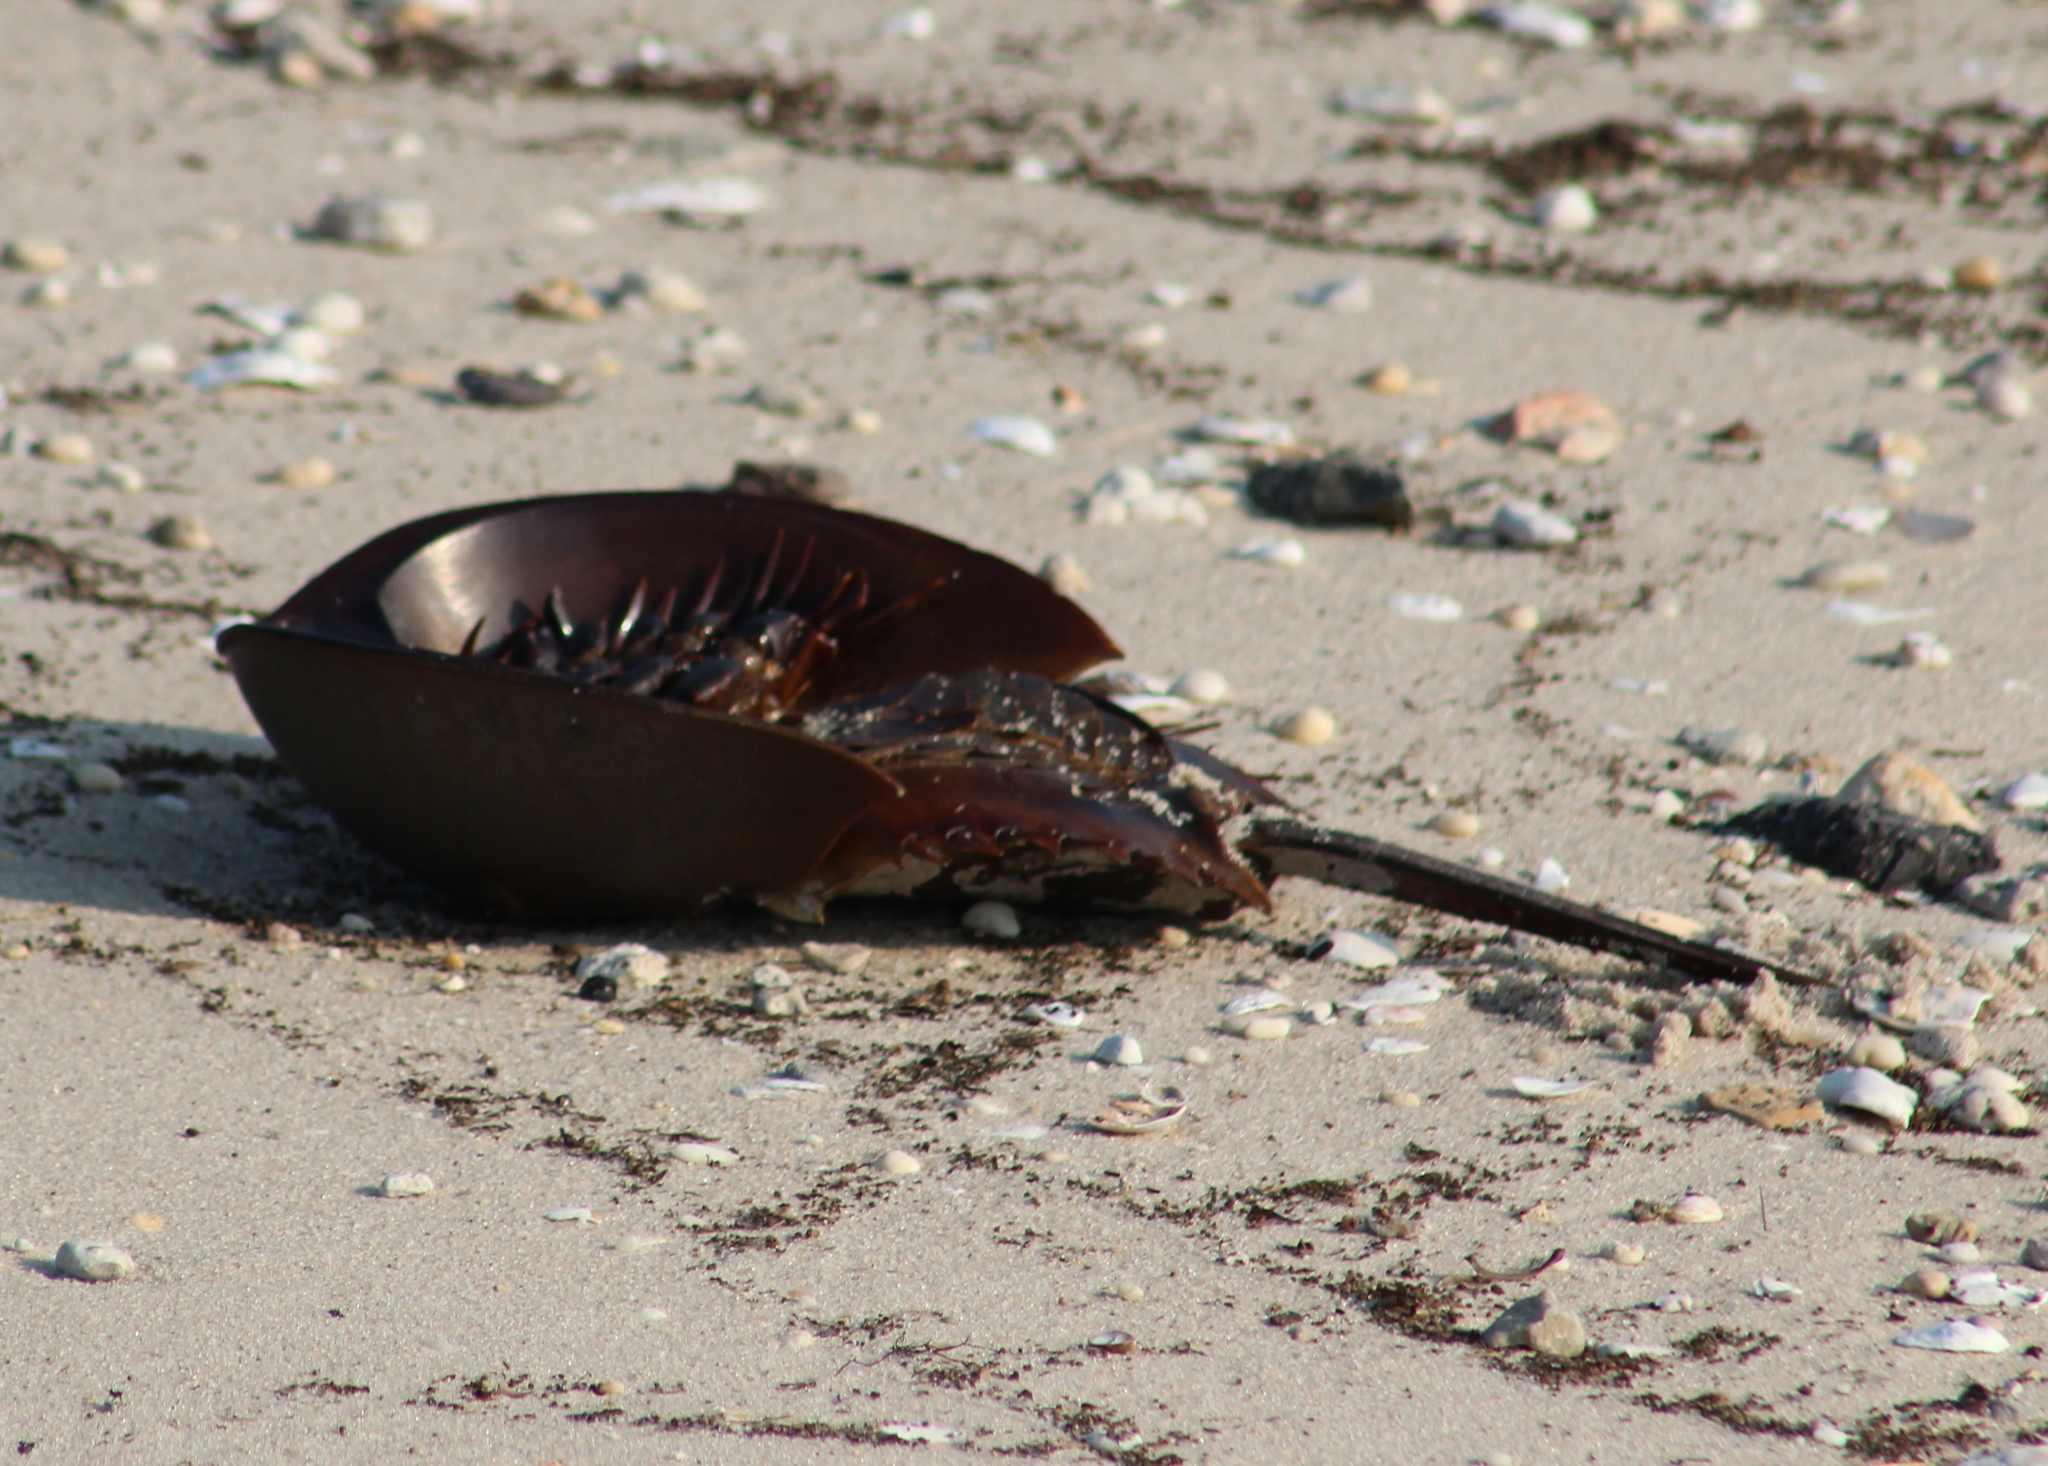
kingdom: Animalia
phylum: Arthropoda
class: Merostomata
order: Xiphosurida
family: Limulidae
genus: Limulus
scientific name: Limulus polyphemus
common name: Horseshoe crab
